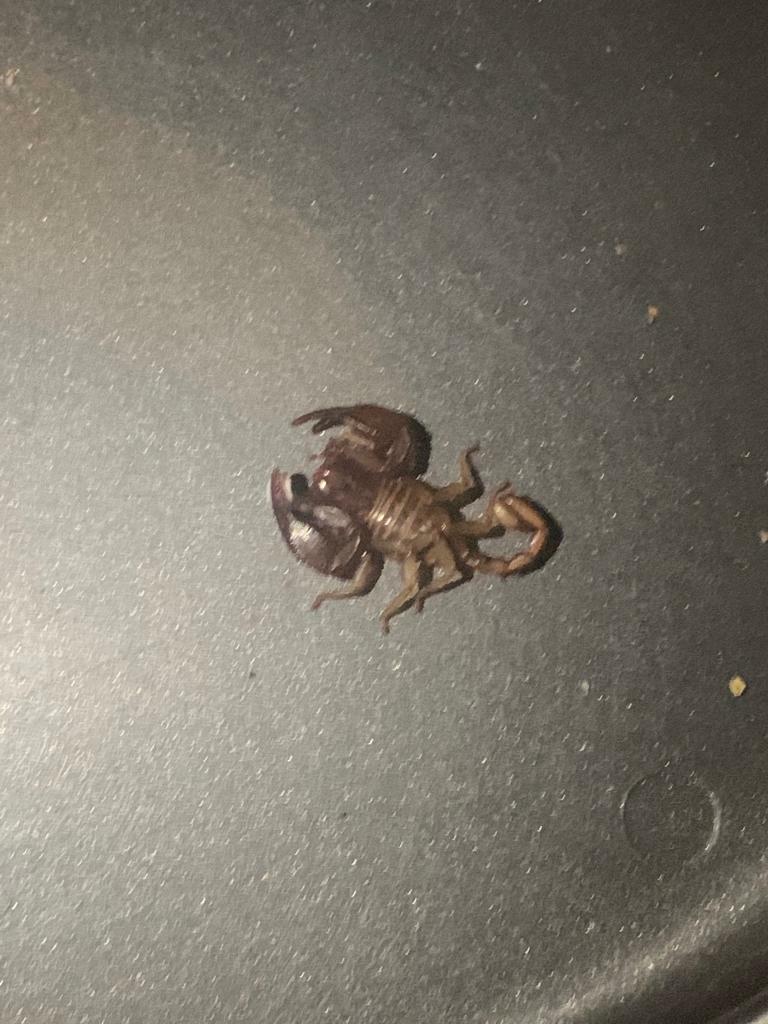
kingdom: Animalia
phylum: Arthropoda
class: Arachnida
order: Scorpiones
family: Euscorpiidae
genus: Euscorpius
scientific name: Euscorpius aquilejensis
